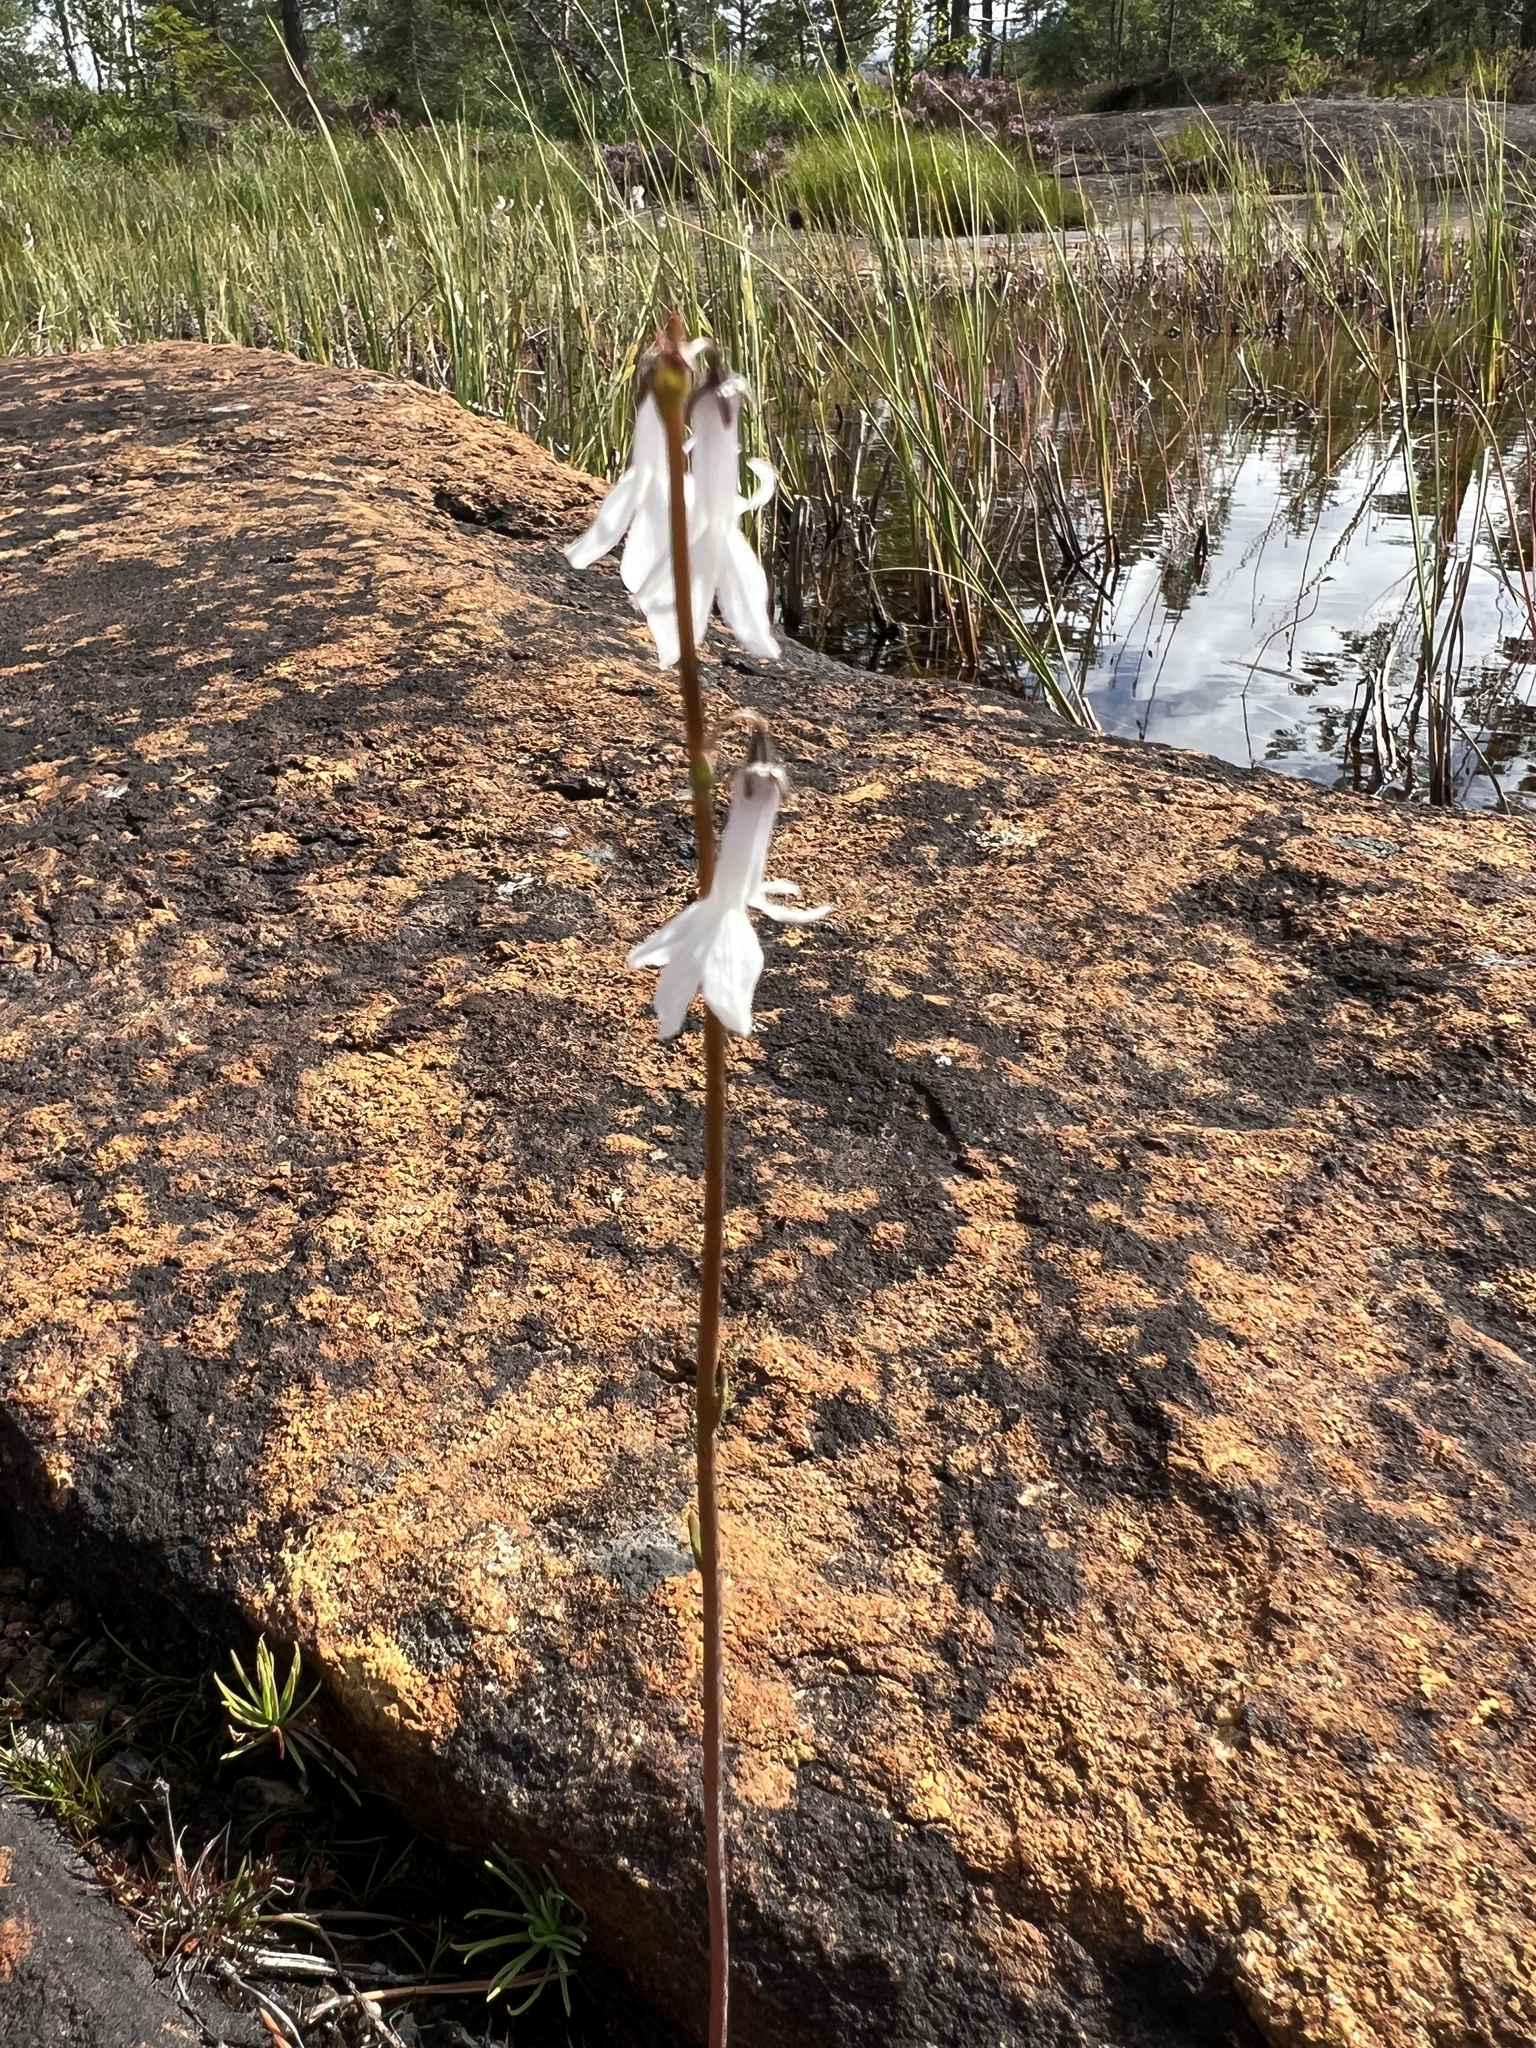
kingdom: Plantae
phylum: Tracheophyta
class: Magnoliopsida
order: Asterales
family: Campanulaceae
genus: Lobelia
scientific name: Lobelia dortmanna
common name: Water lobelia
